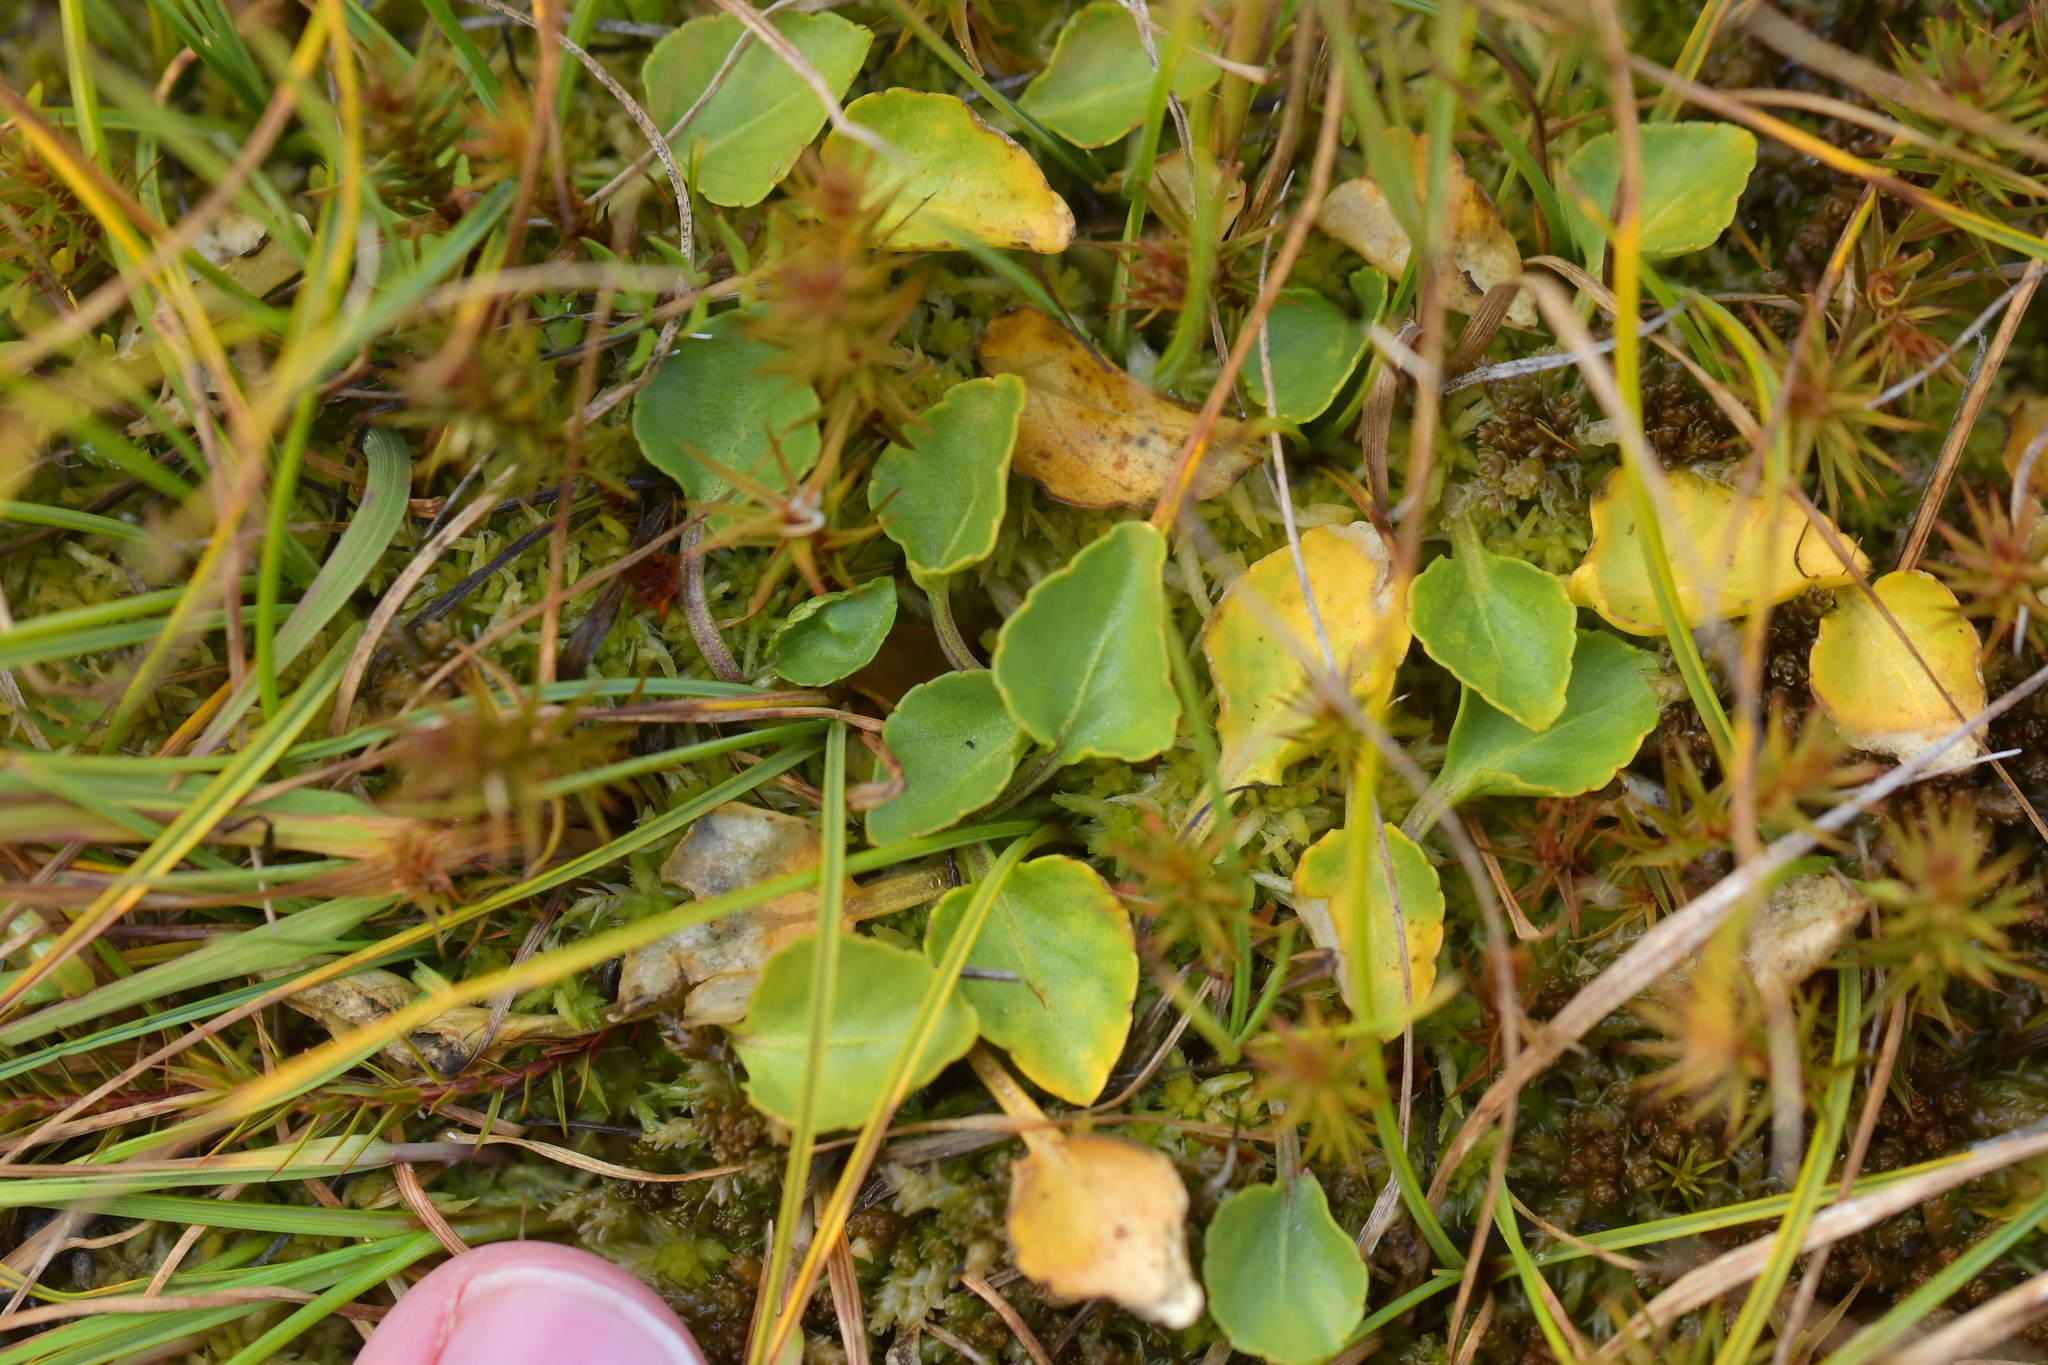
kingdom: Plantae
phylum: Tracheophyta
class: Magnoliopsida
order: Malpighiales
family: Violaceae
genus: Viola
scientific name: Viola cunninghamii
